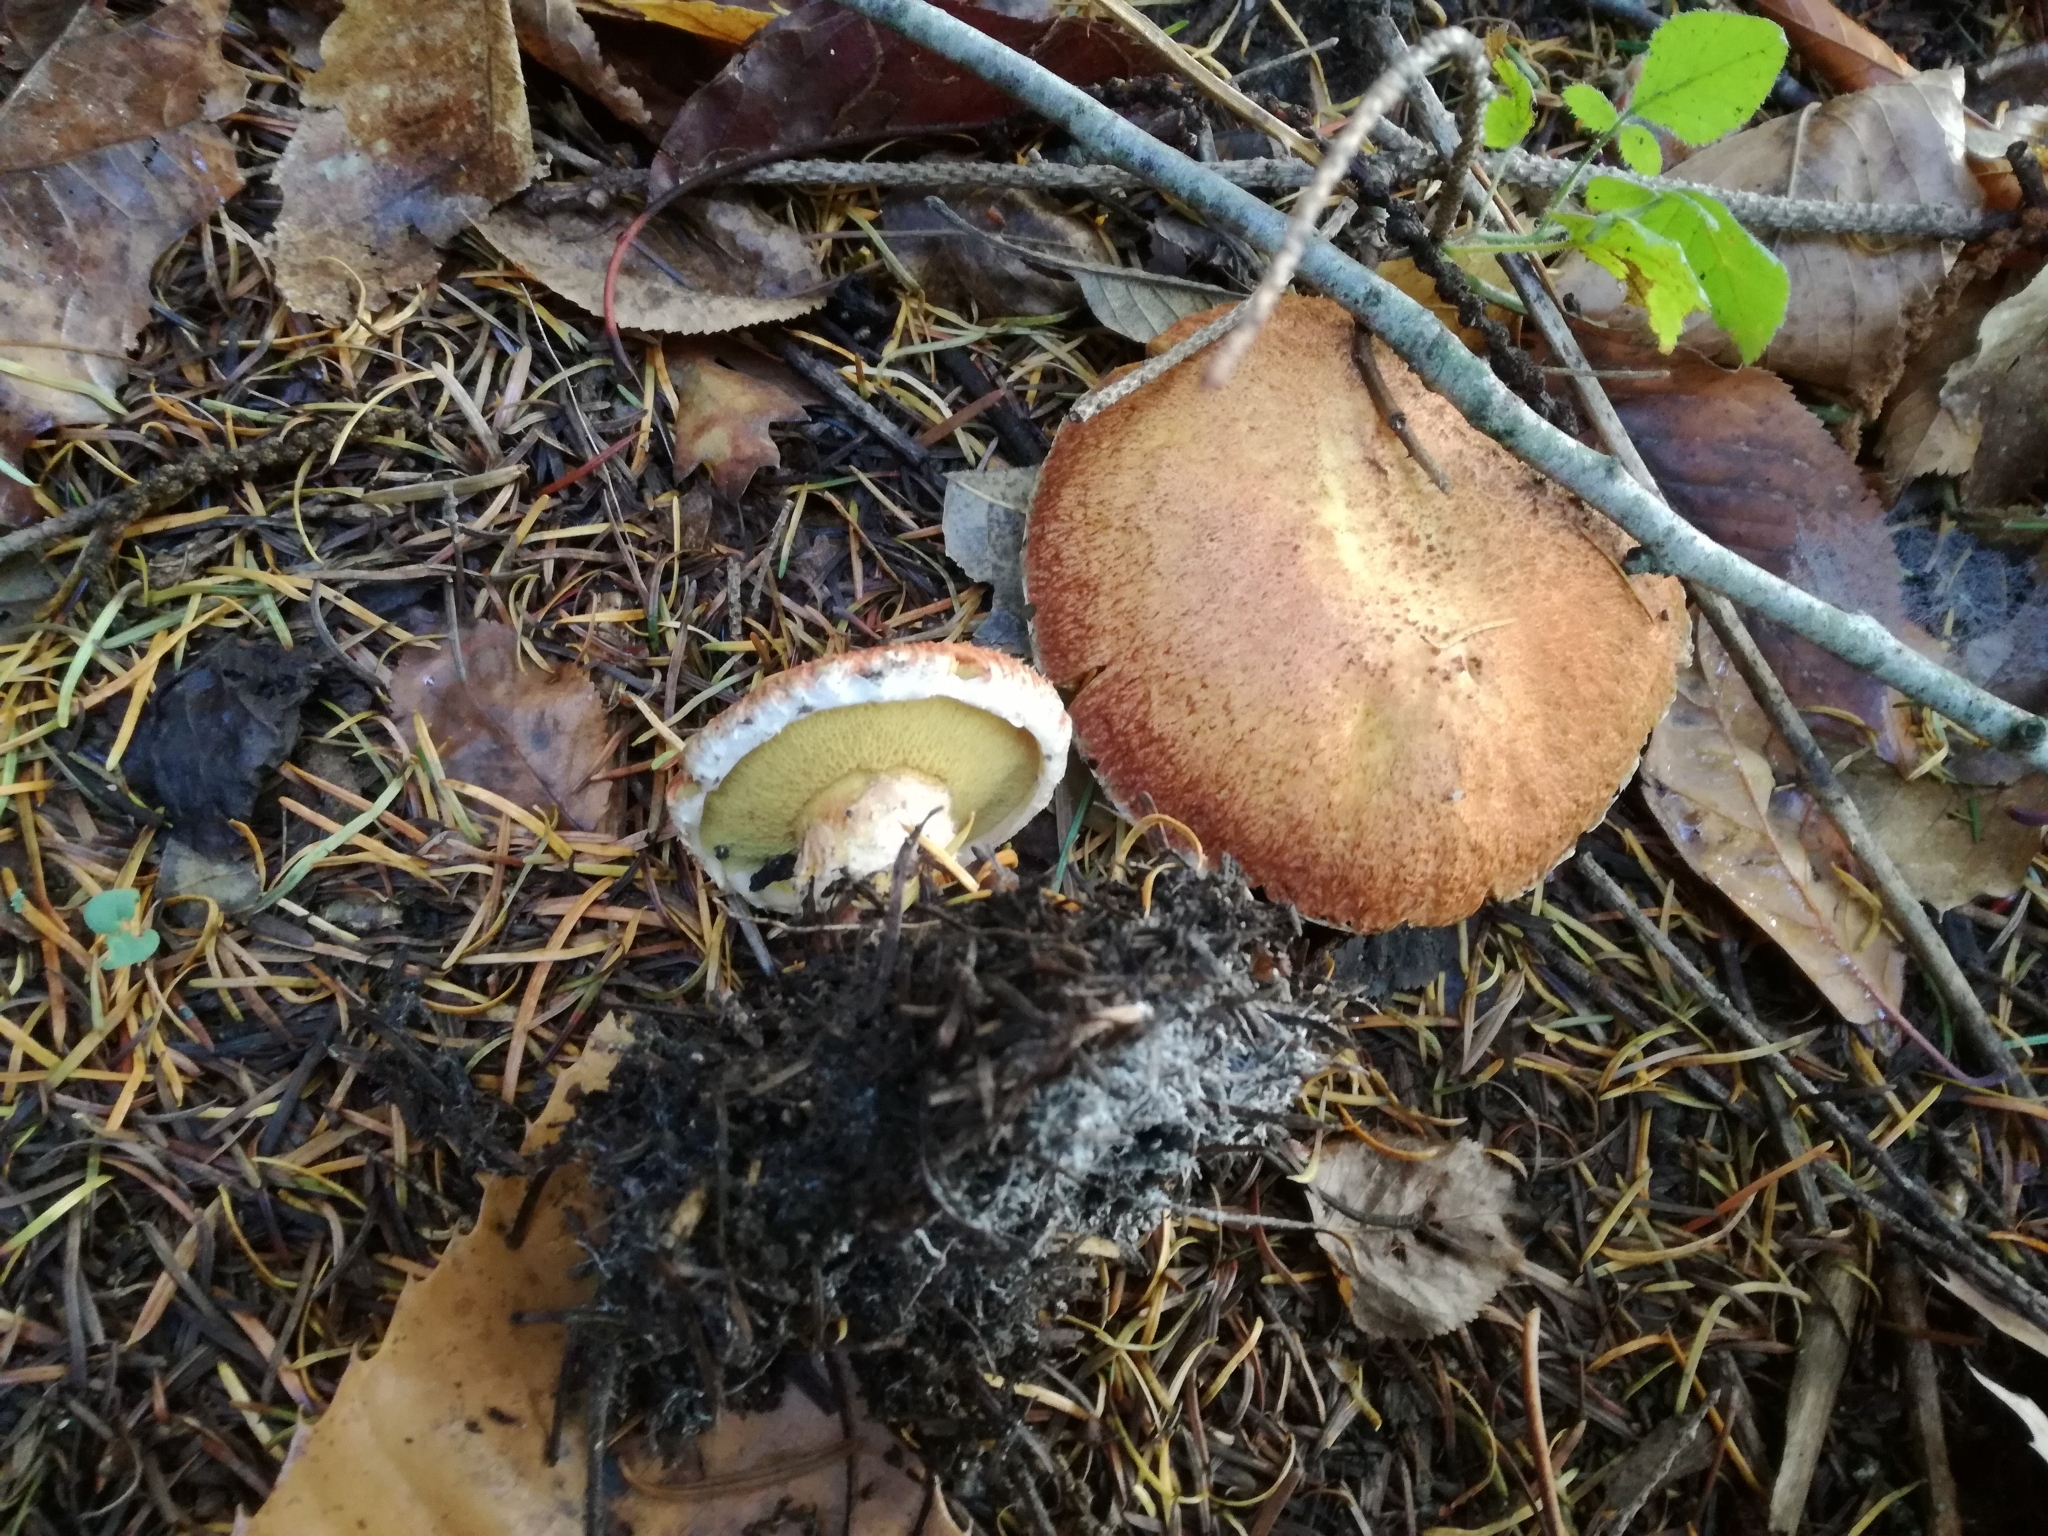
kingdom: Fungi
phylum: Basidiomycota
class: Agaricomycetes
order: Boletales
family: Suillaceae
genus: Suillus
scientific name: Suillus lakei
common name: Western painted suillus
